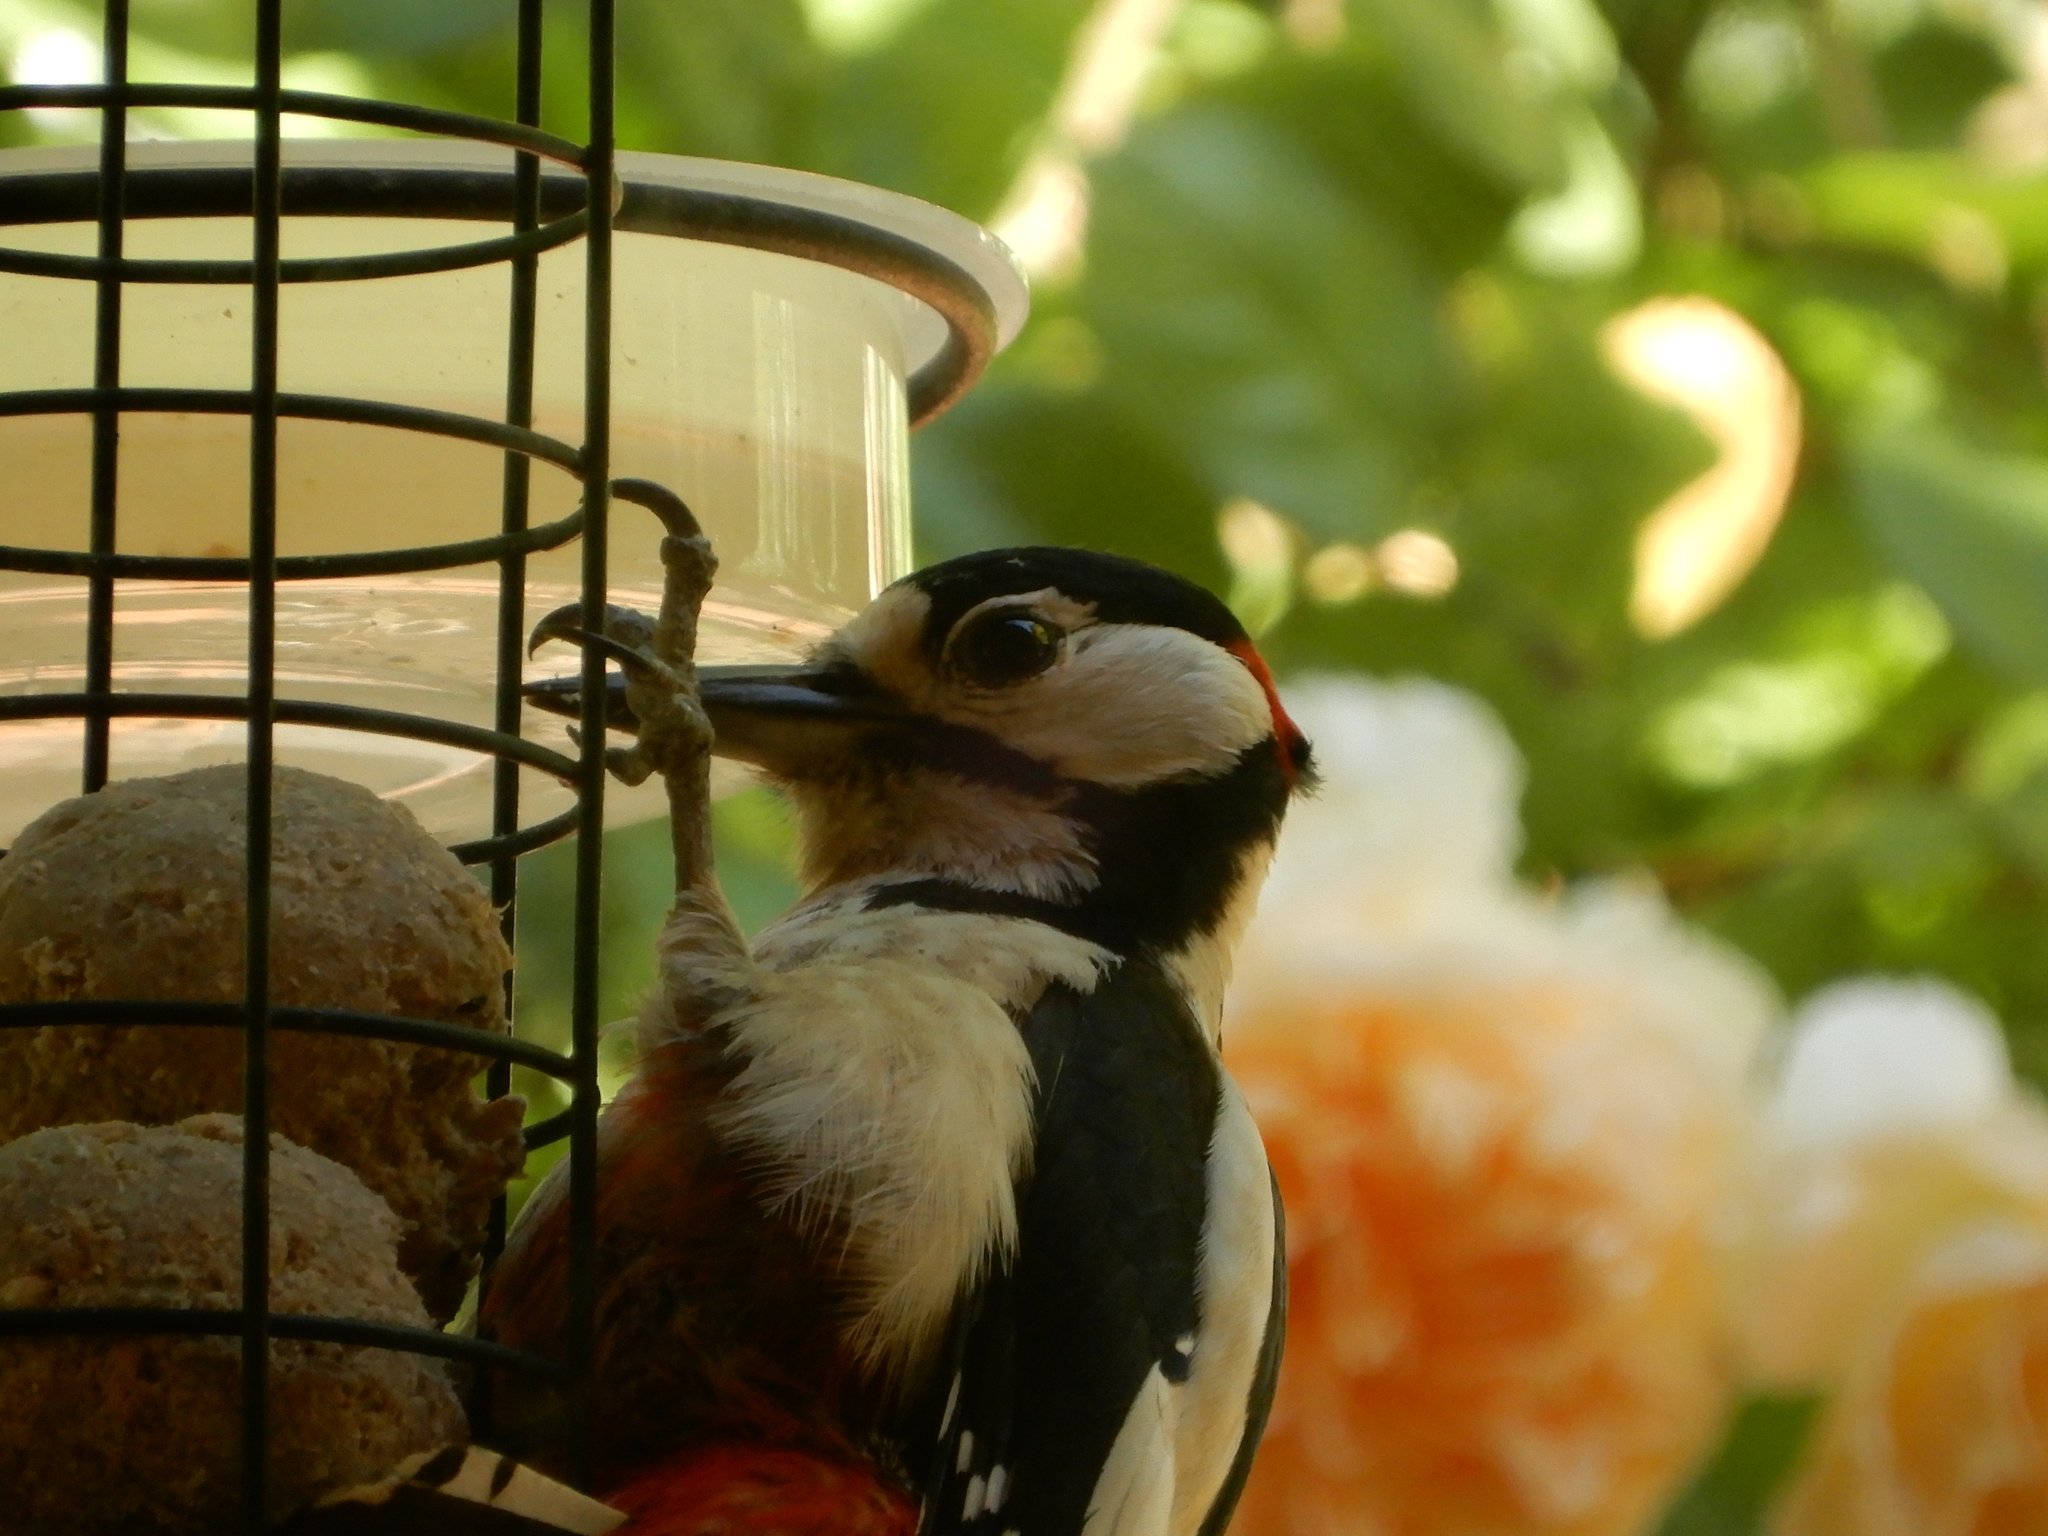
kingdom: Animalia
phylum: Chordata
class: Aves
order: Piciformes
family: Picidae
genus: Dendrocopos
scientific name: Dendrocopos major
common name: Great spotted woodpecker
